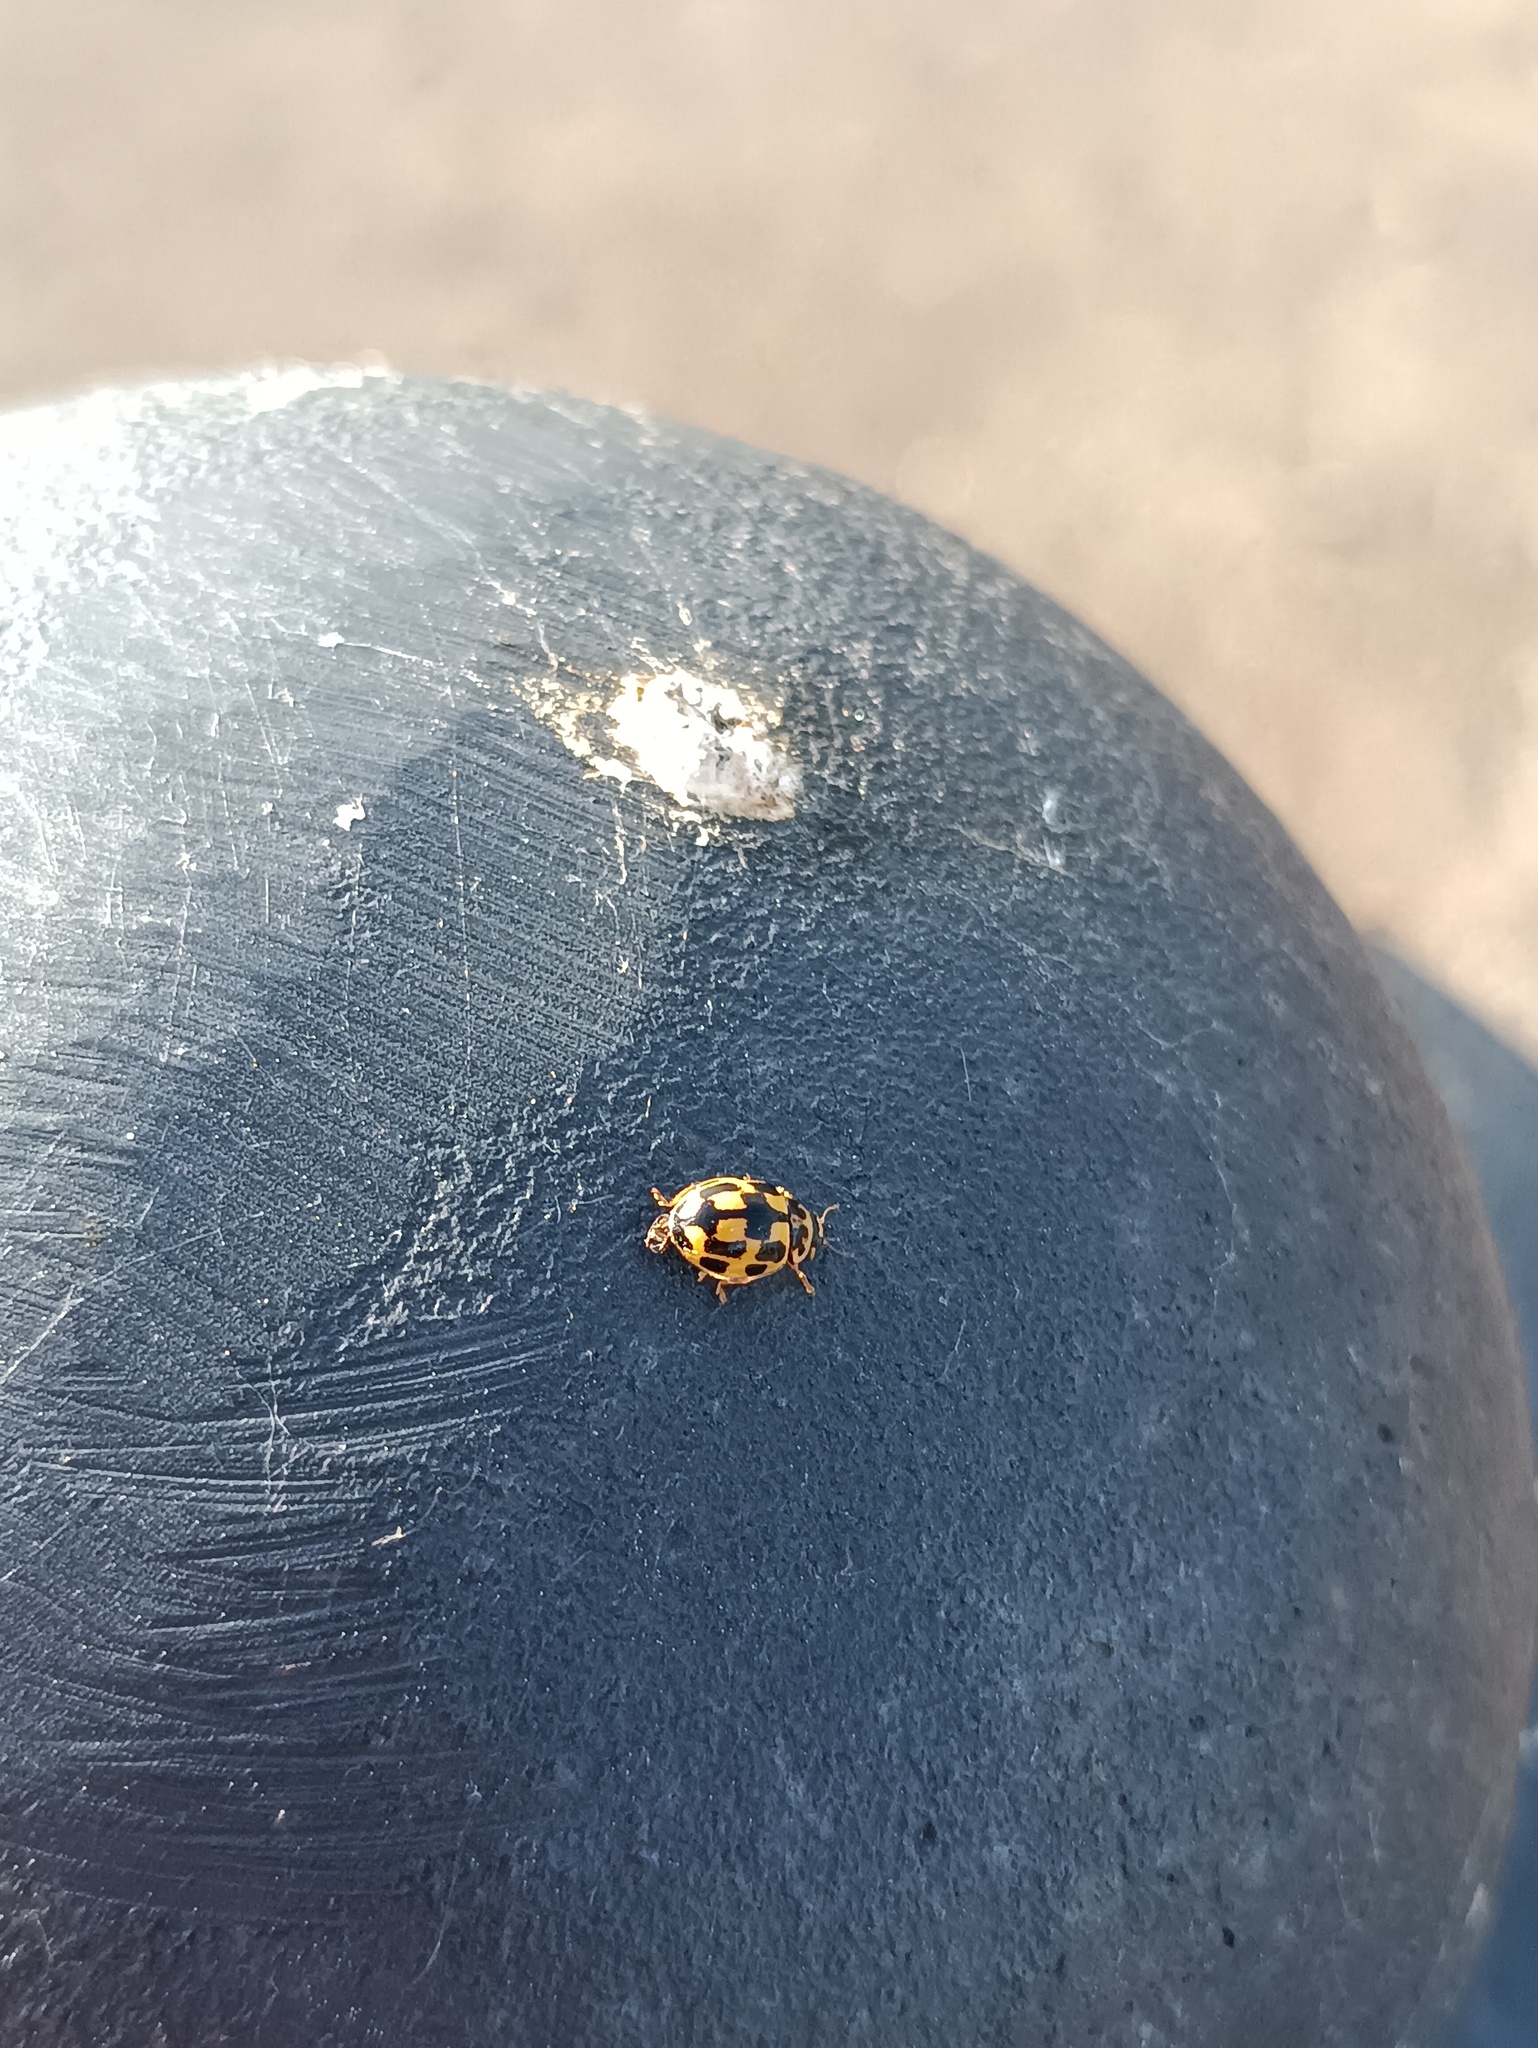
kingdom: Animalia
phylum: Arthropoda
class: Insecta
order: Coleoptera
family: Coccinellidae
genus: Propylaea
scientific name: Propylaea quatuordecimpunctata
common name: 14-spotted ladybird beetle
